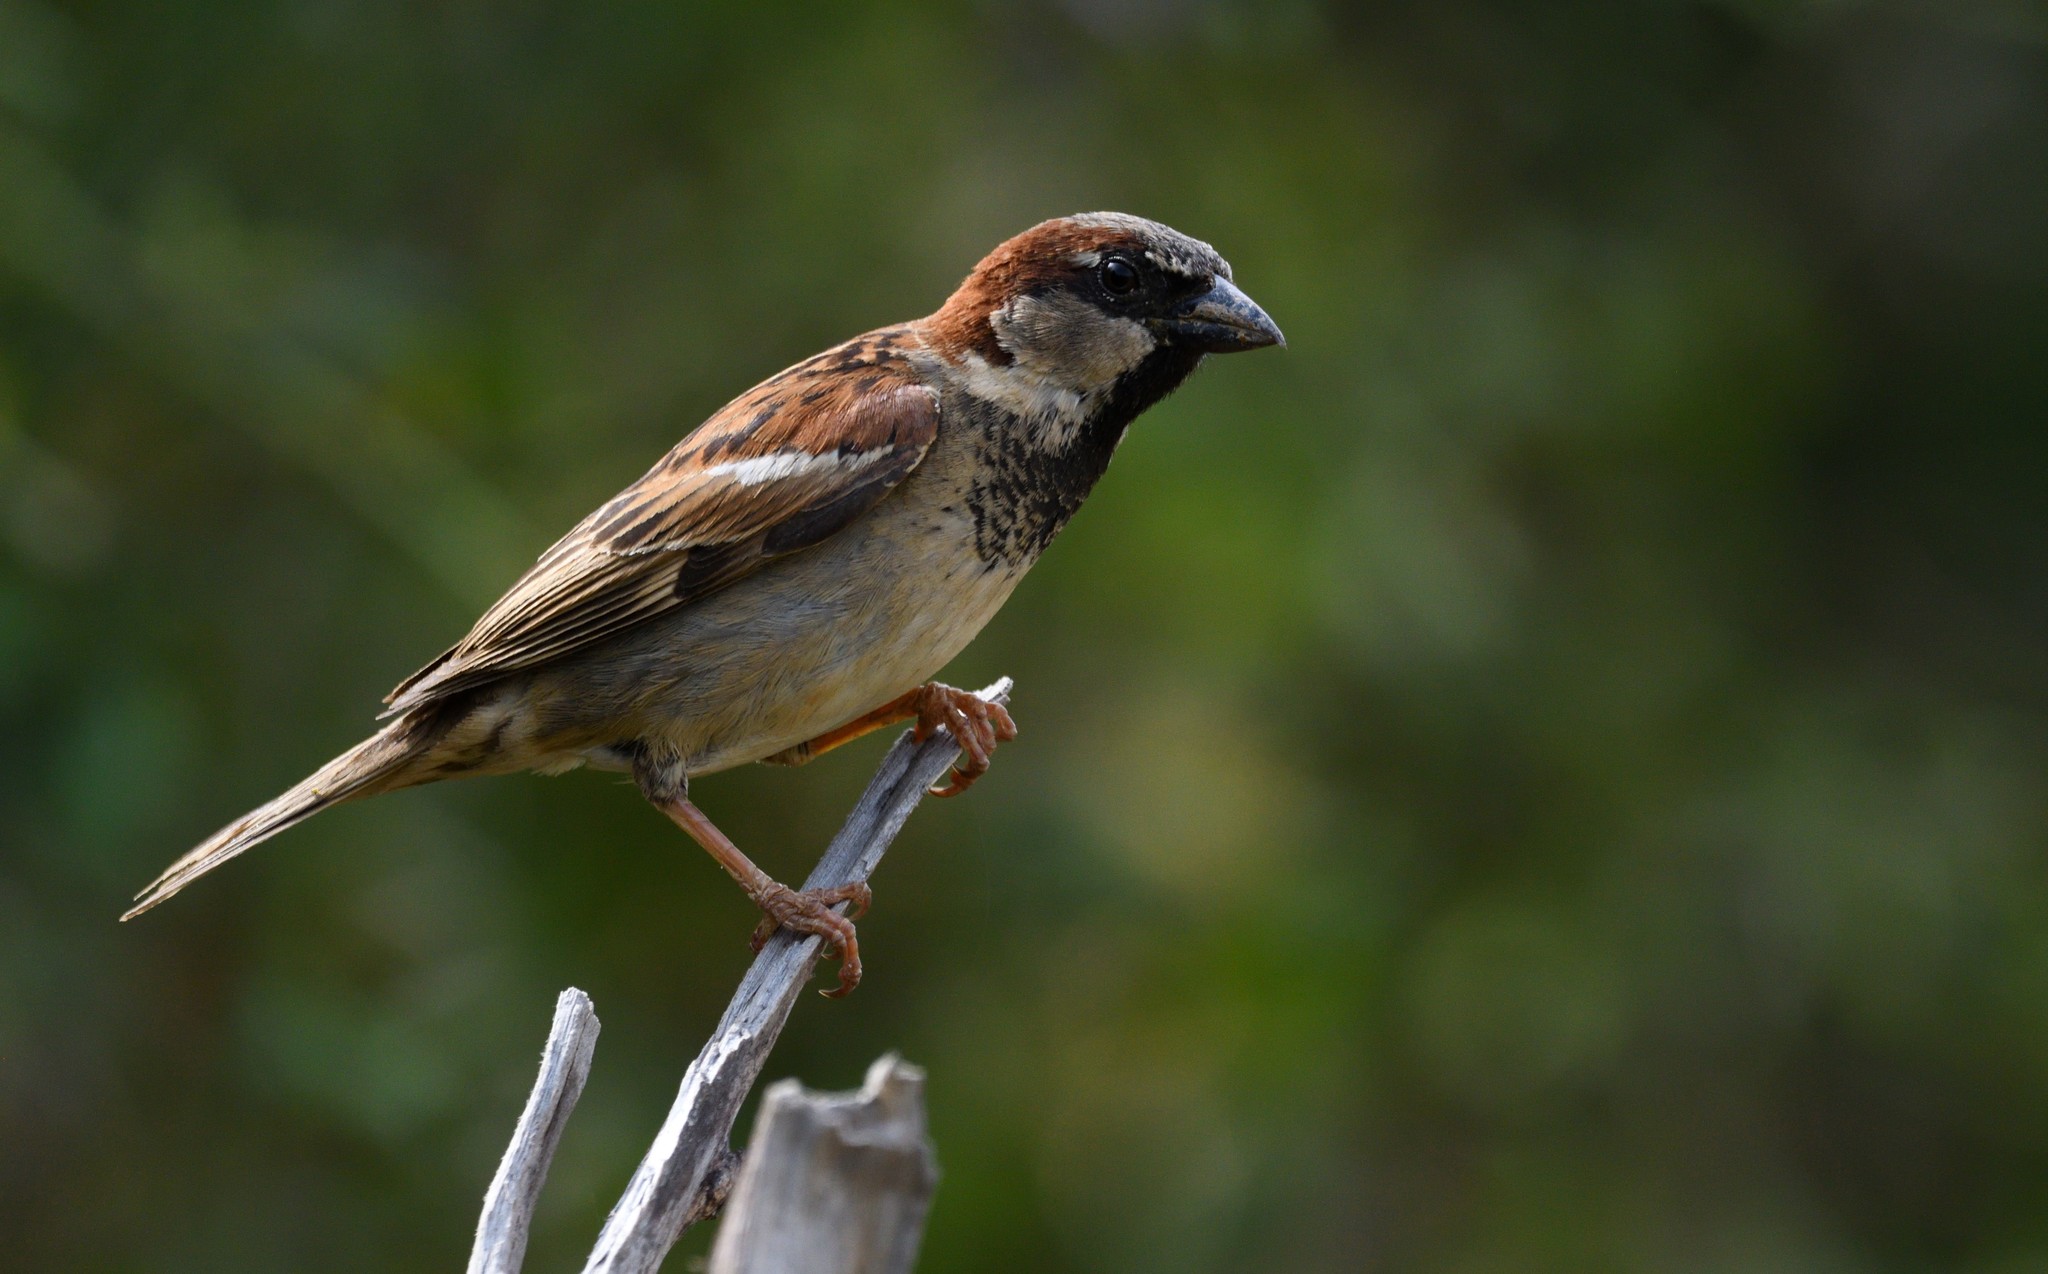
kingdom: Animalia
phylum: Chordata
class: Aves
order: Passeriformes
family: Passeridae
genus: Passer
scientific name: Passer domesticus
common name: House sparrow
